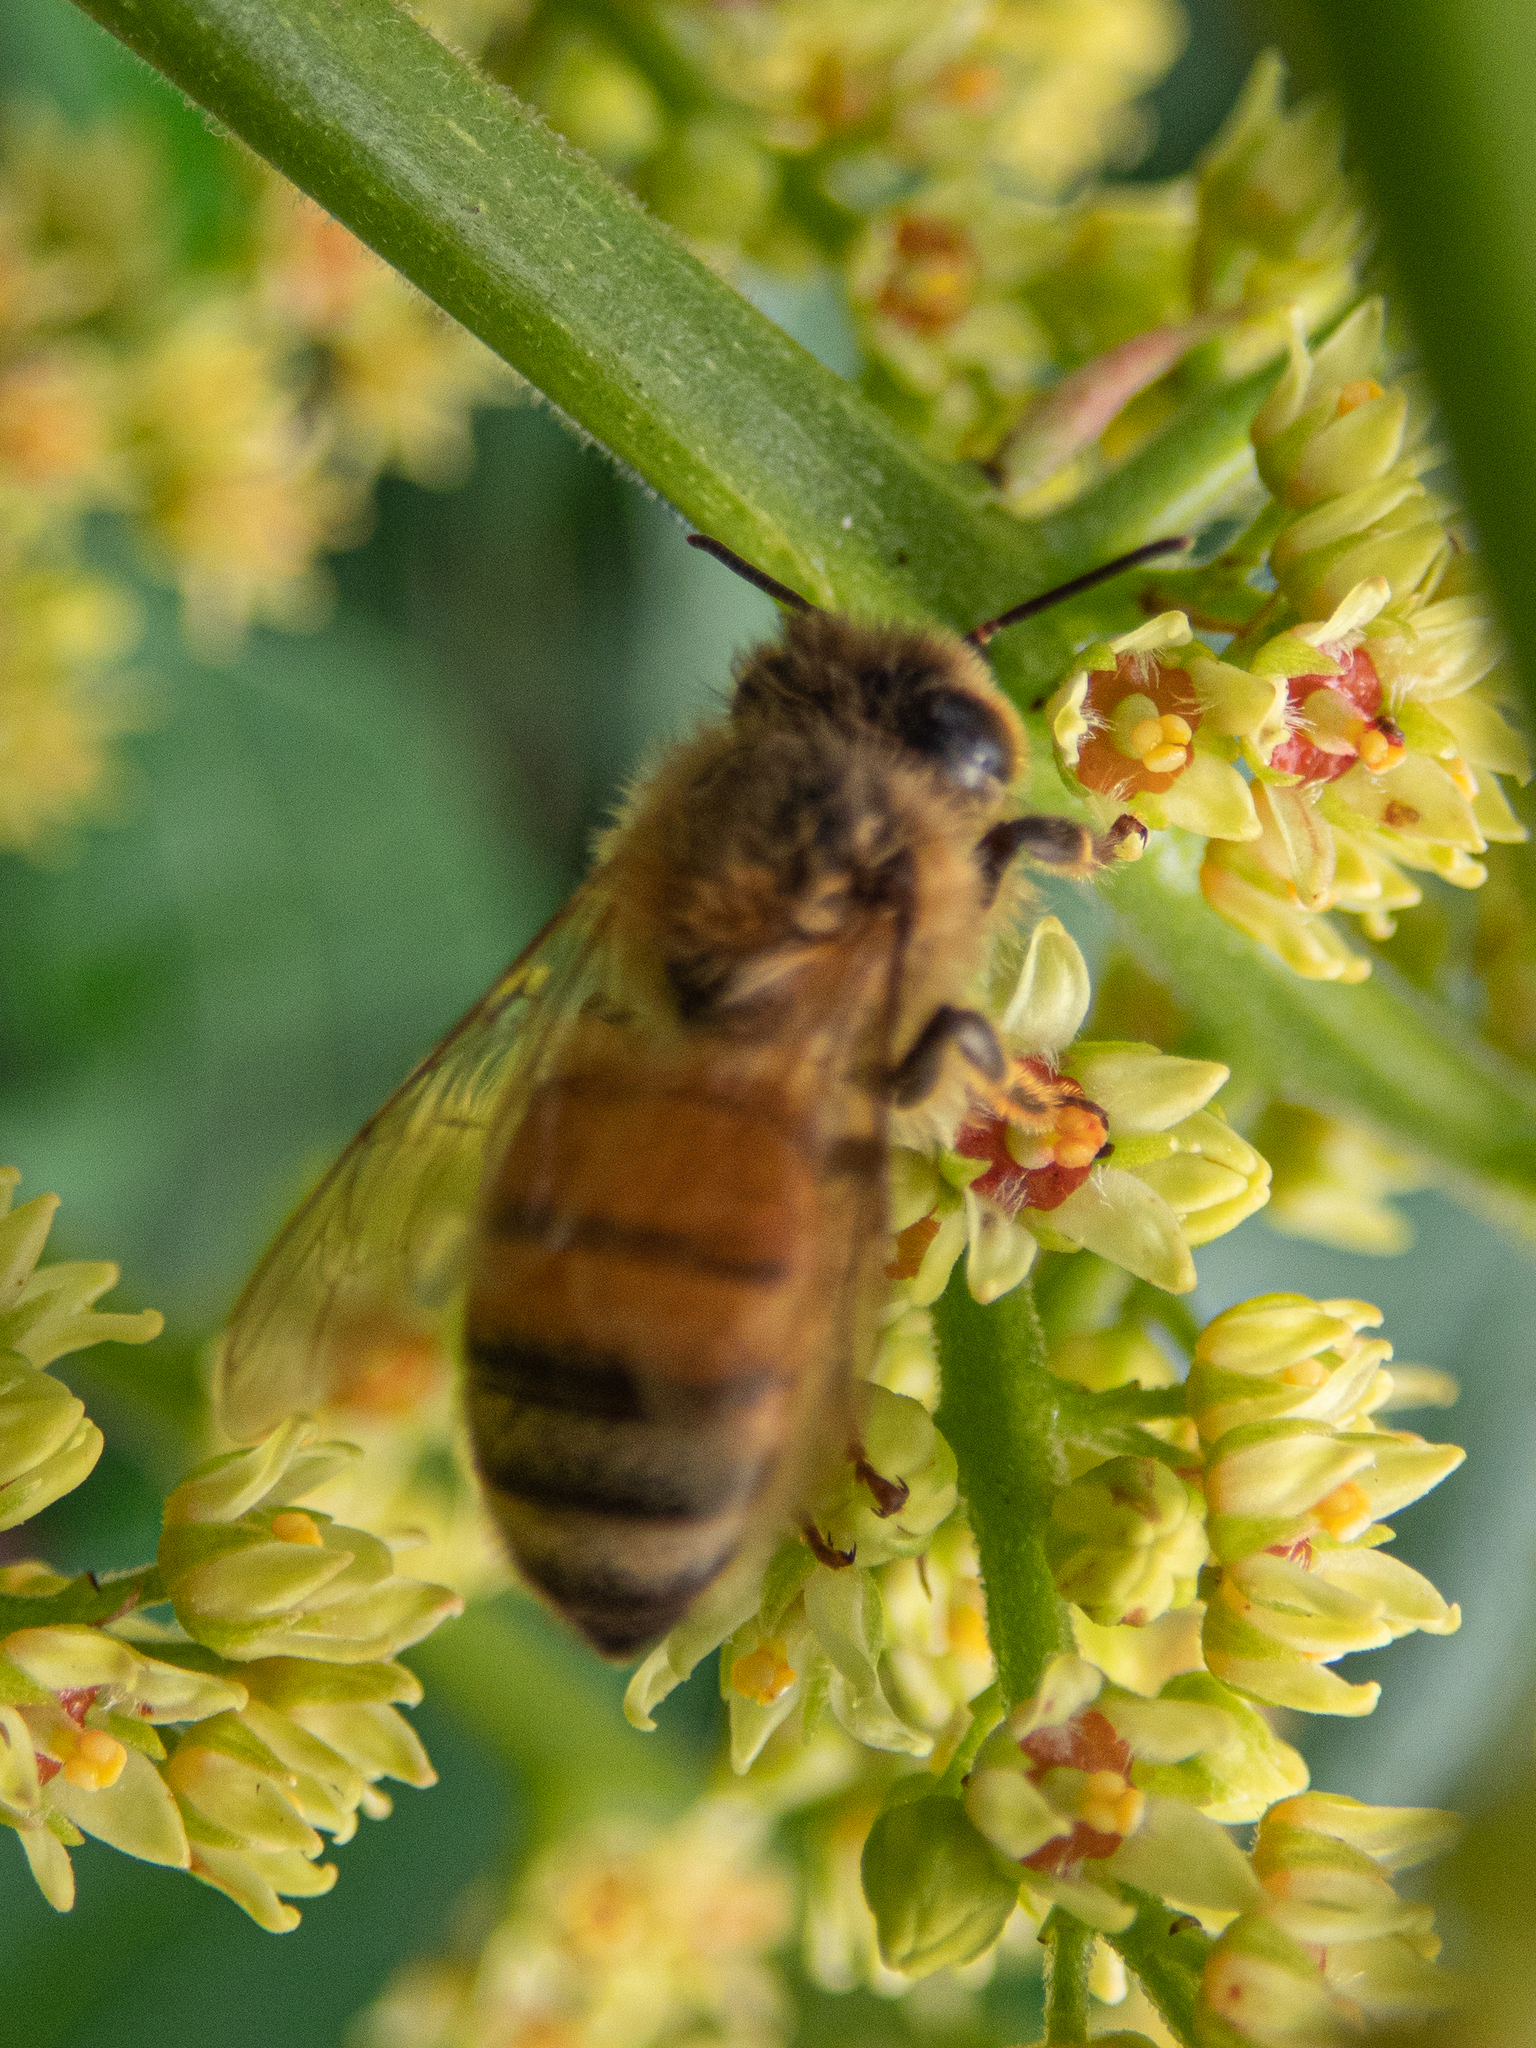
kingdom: Animalia
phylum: Arthropoda
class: Insecta
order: Hymenoptera
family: Apidae
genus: Apis
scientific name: Apis mellifera
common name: Honey bee
